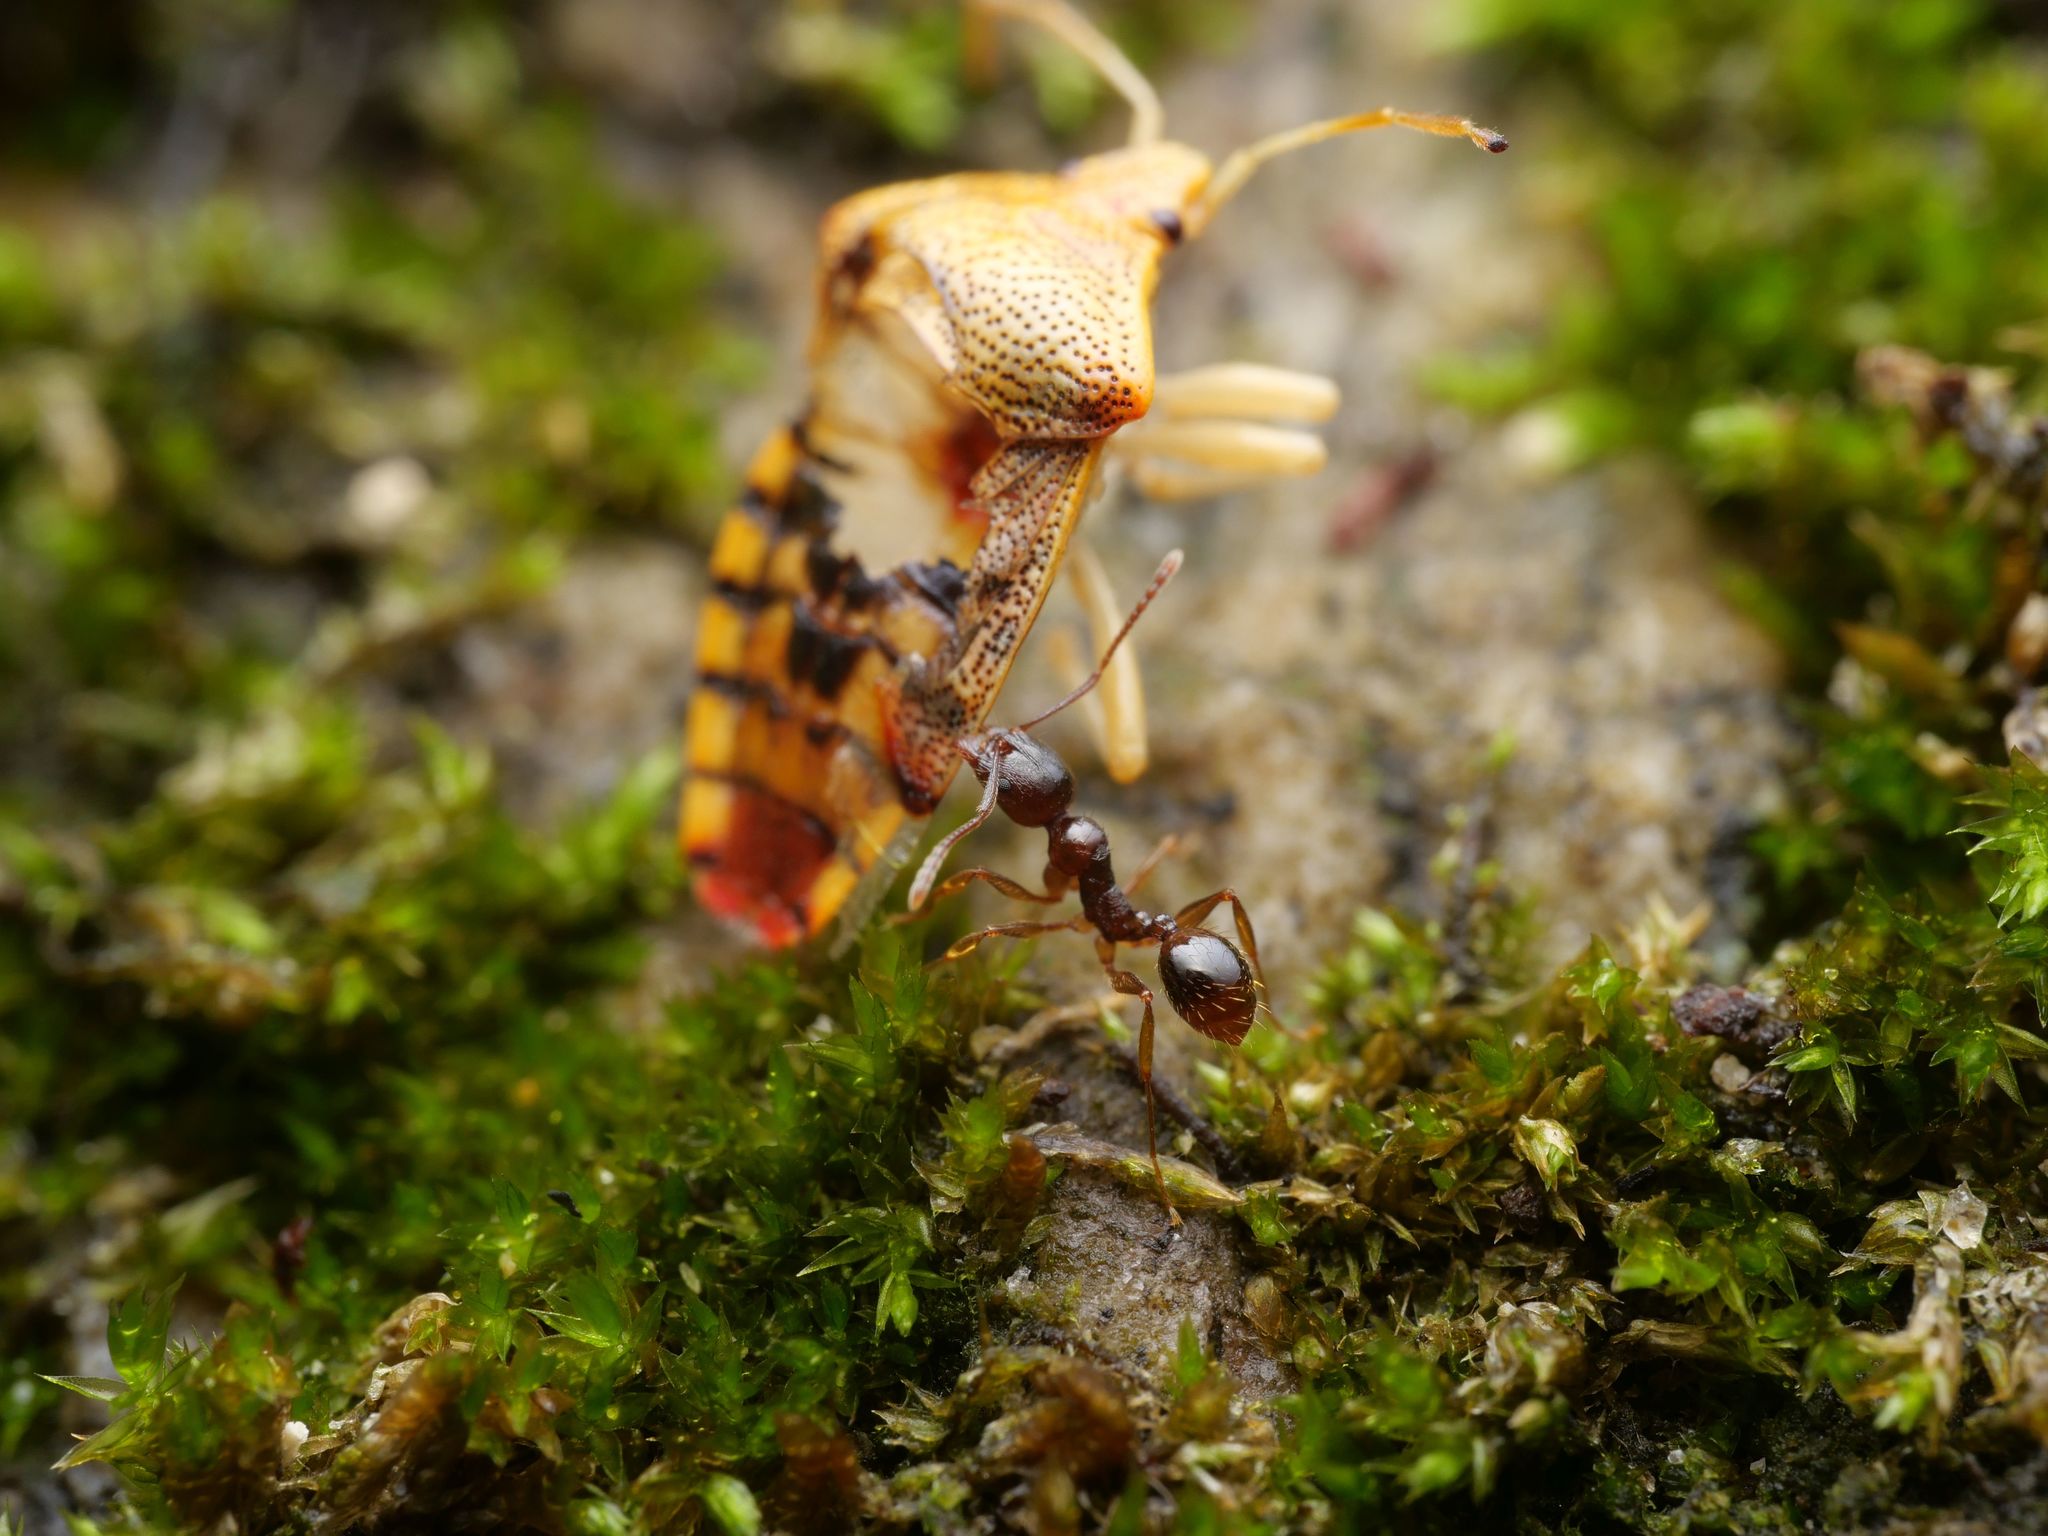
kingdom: Animalia
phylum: Arthropoda
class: Insecta
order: Hymenoptera
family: Formicidae
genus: Aphaenogaster
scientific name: Aphaenogaster subterranea
